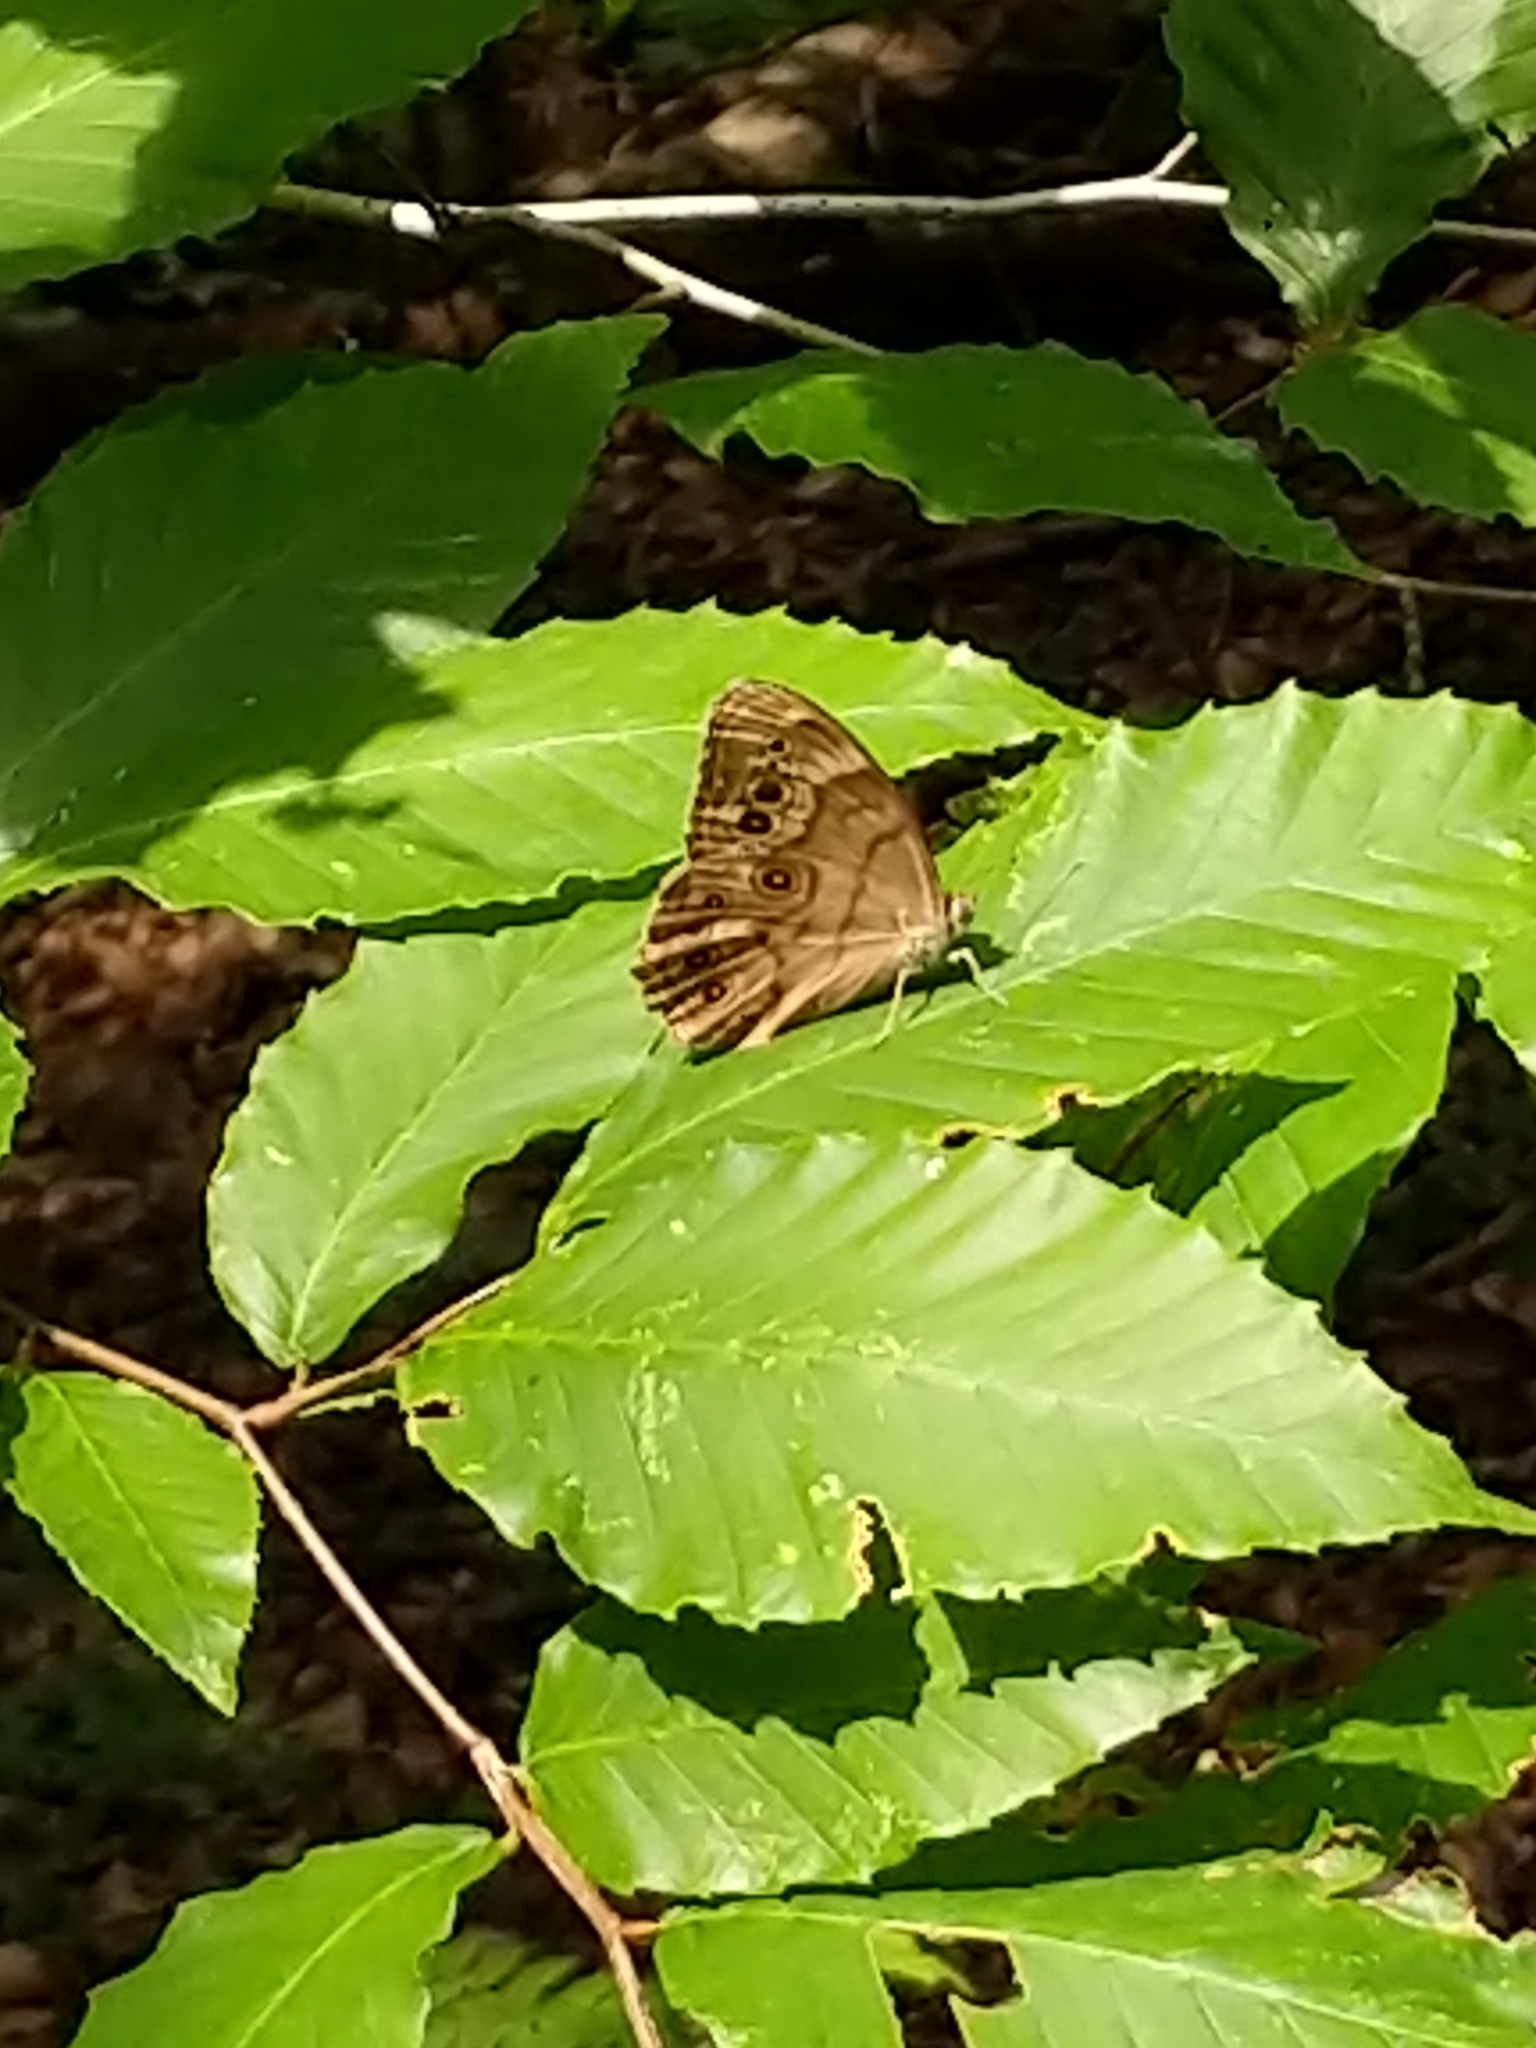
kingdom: Animalia
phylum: Arthropoda
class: Insecta
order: Lepidoptera
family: Nymphalidae
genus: Lethe
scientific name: Lethe anthedon
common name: Northern pearly-eye
